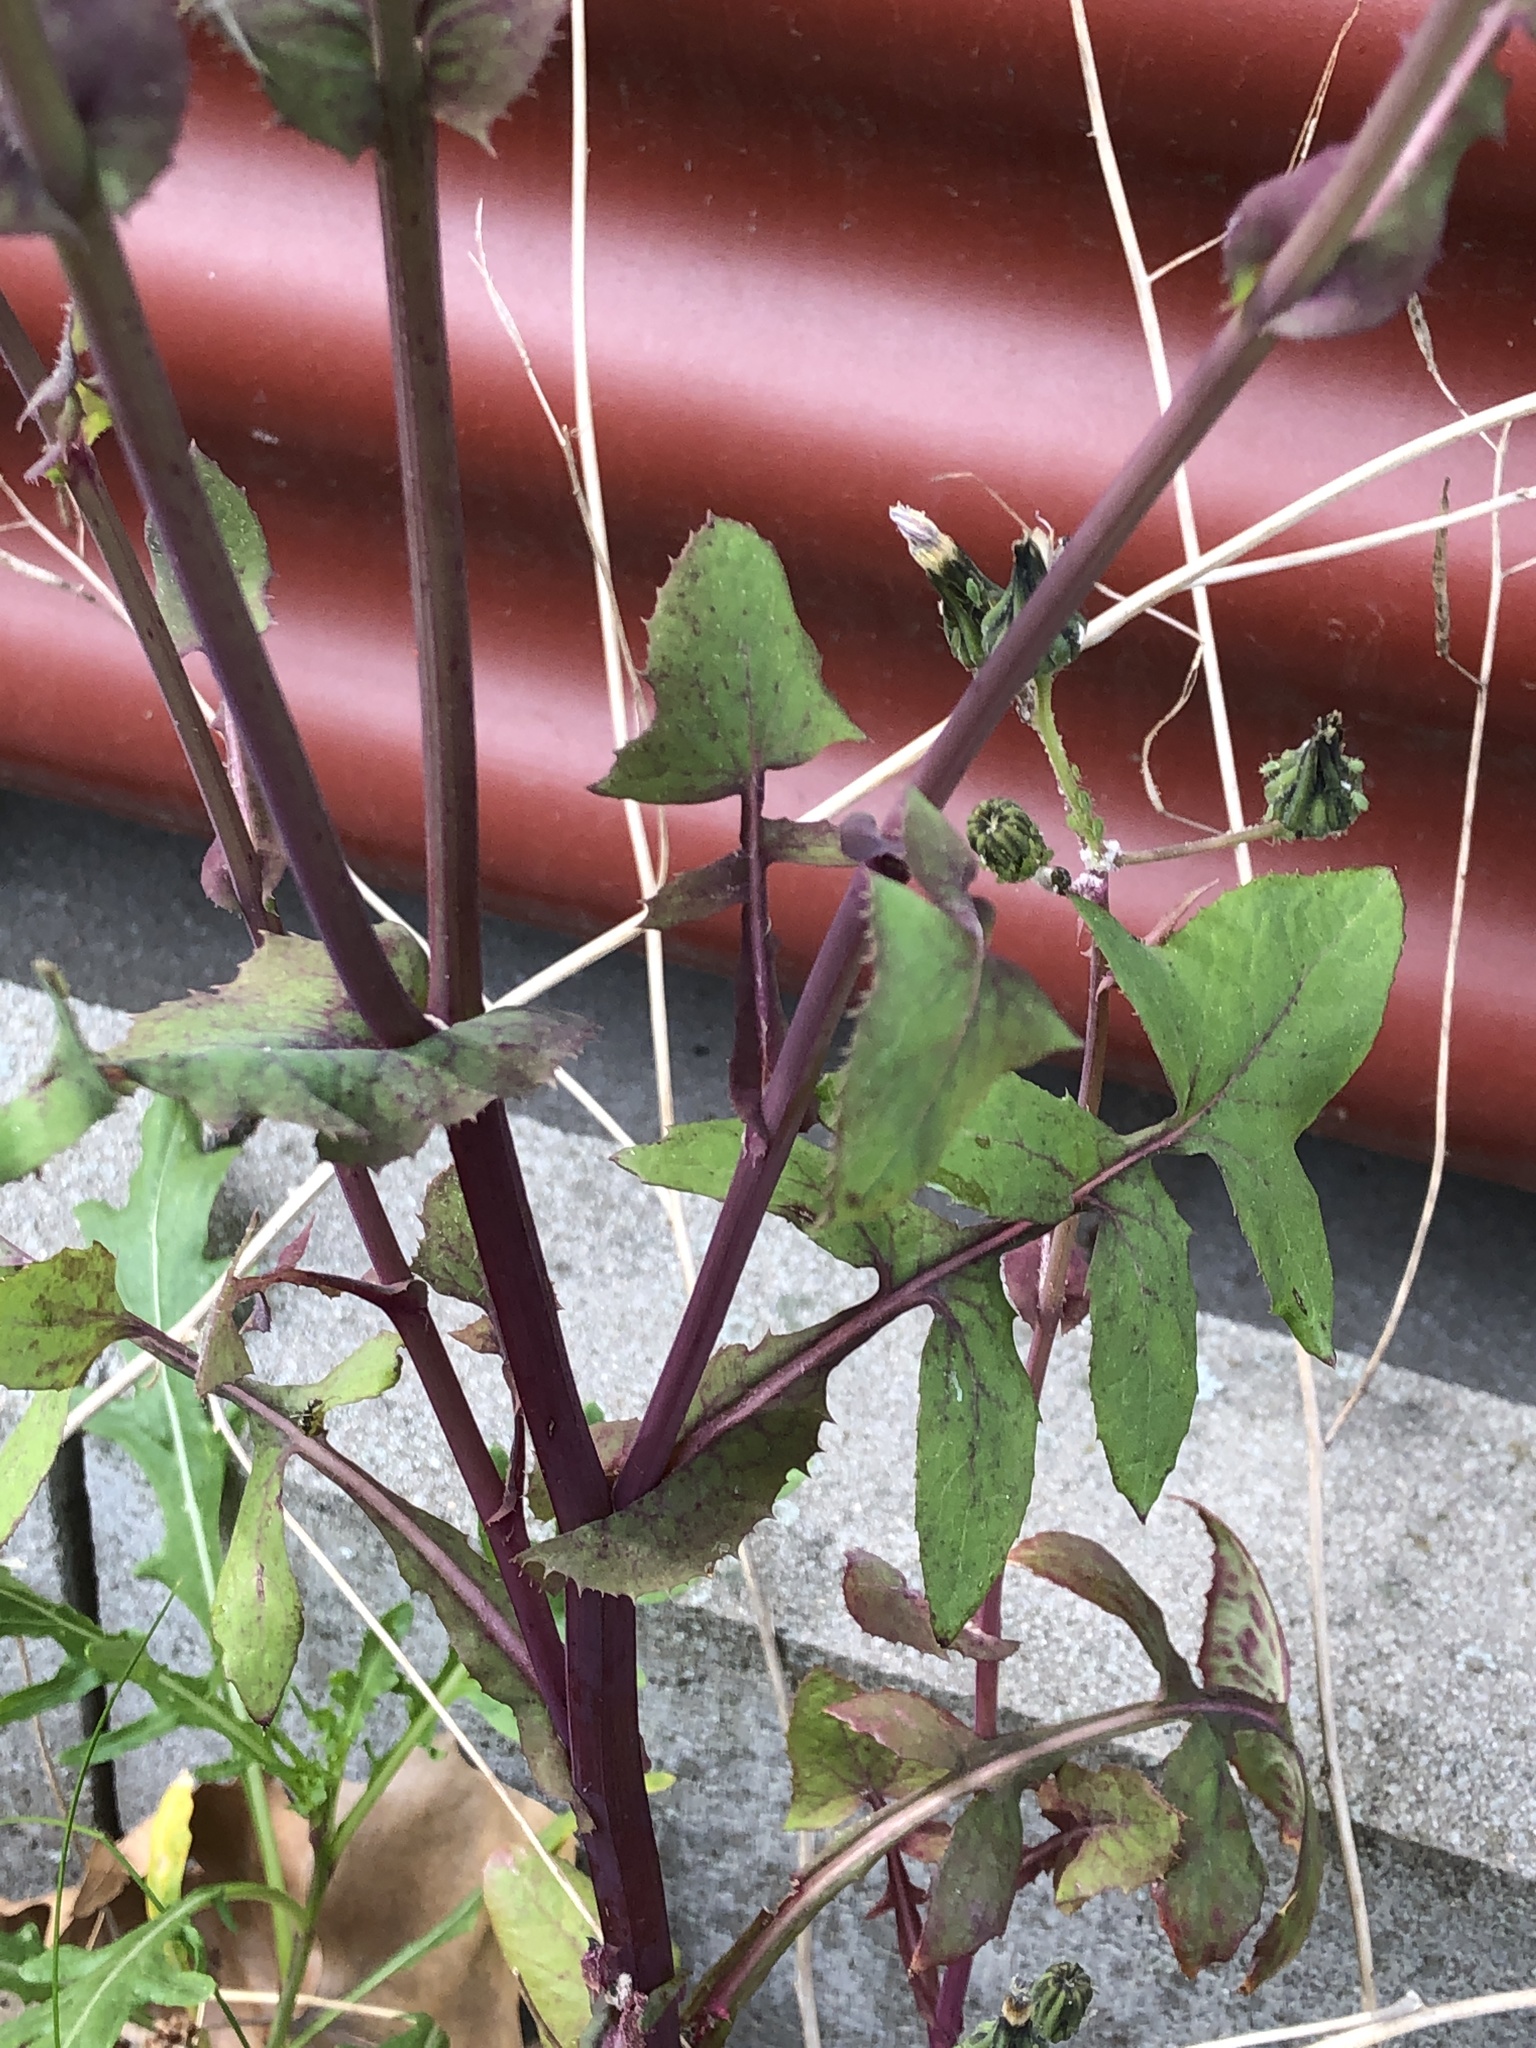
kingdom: Plantae
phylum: Tracheophyta
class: Magnoliopsida
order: Asterales
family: Asteraceae
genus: Sonchus
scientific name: Sonchus oleraceus
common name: Common sowthistle
